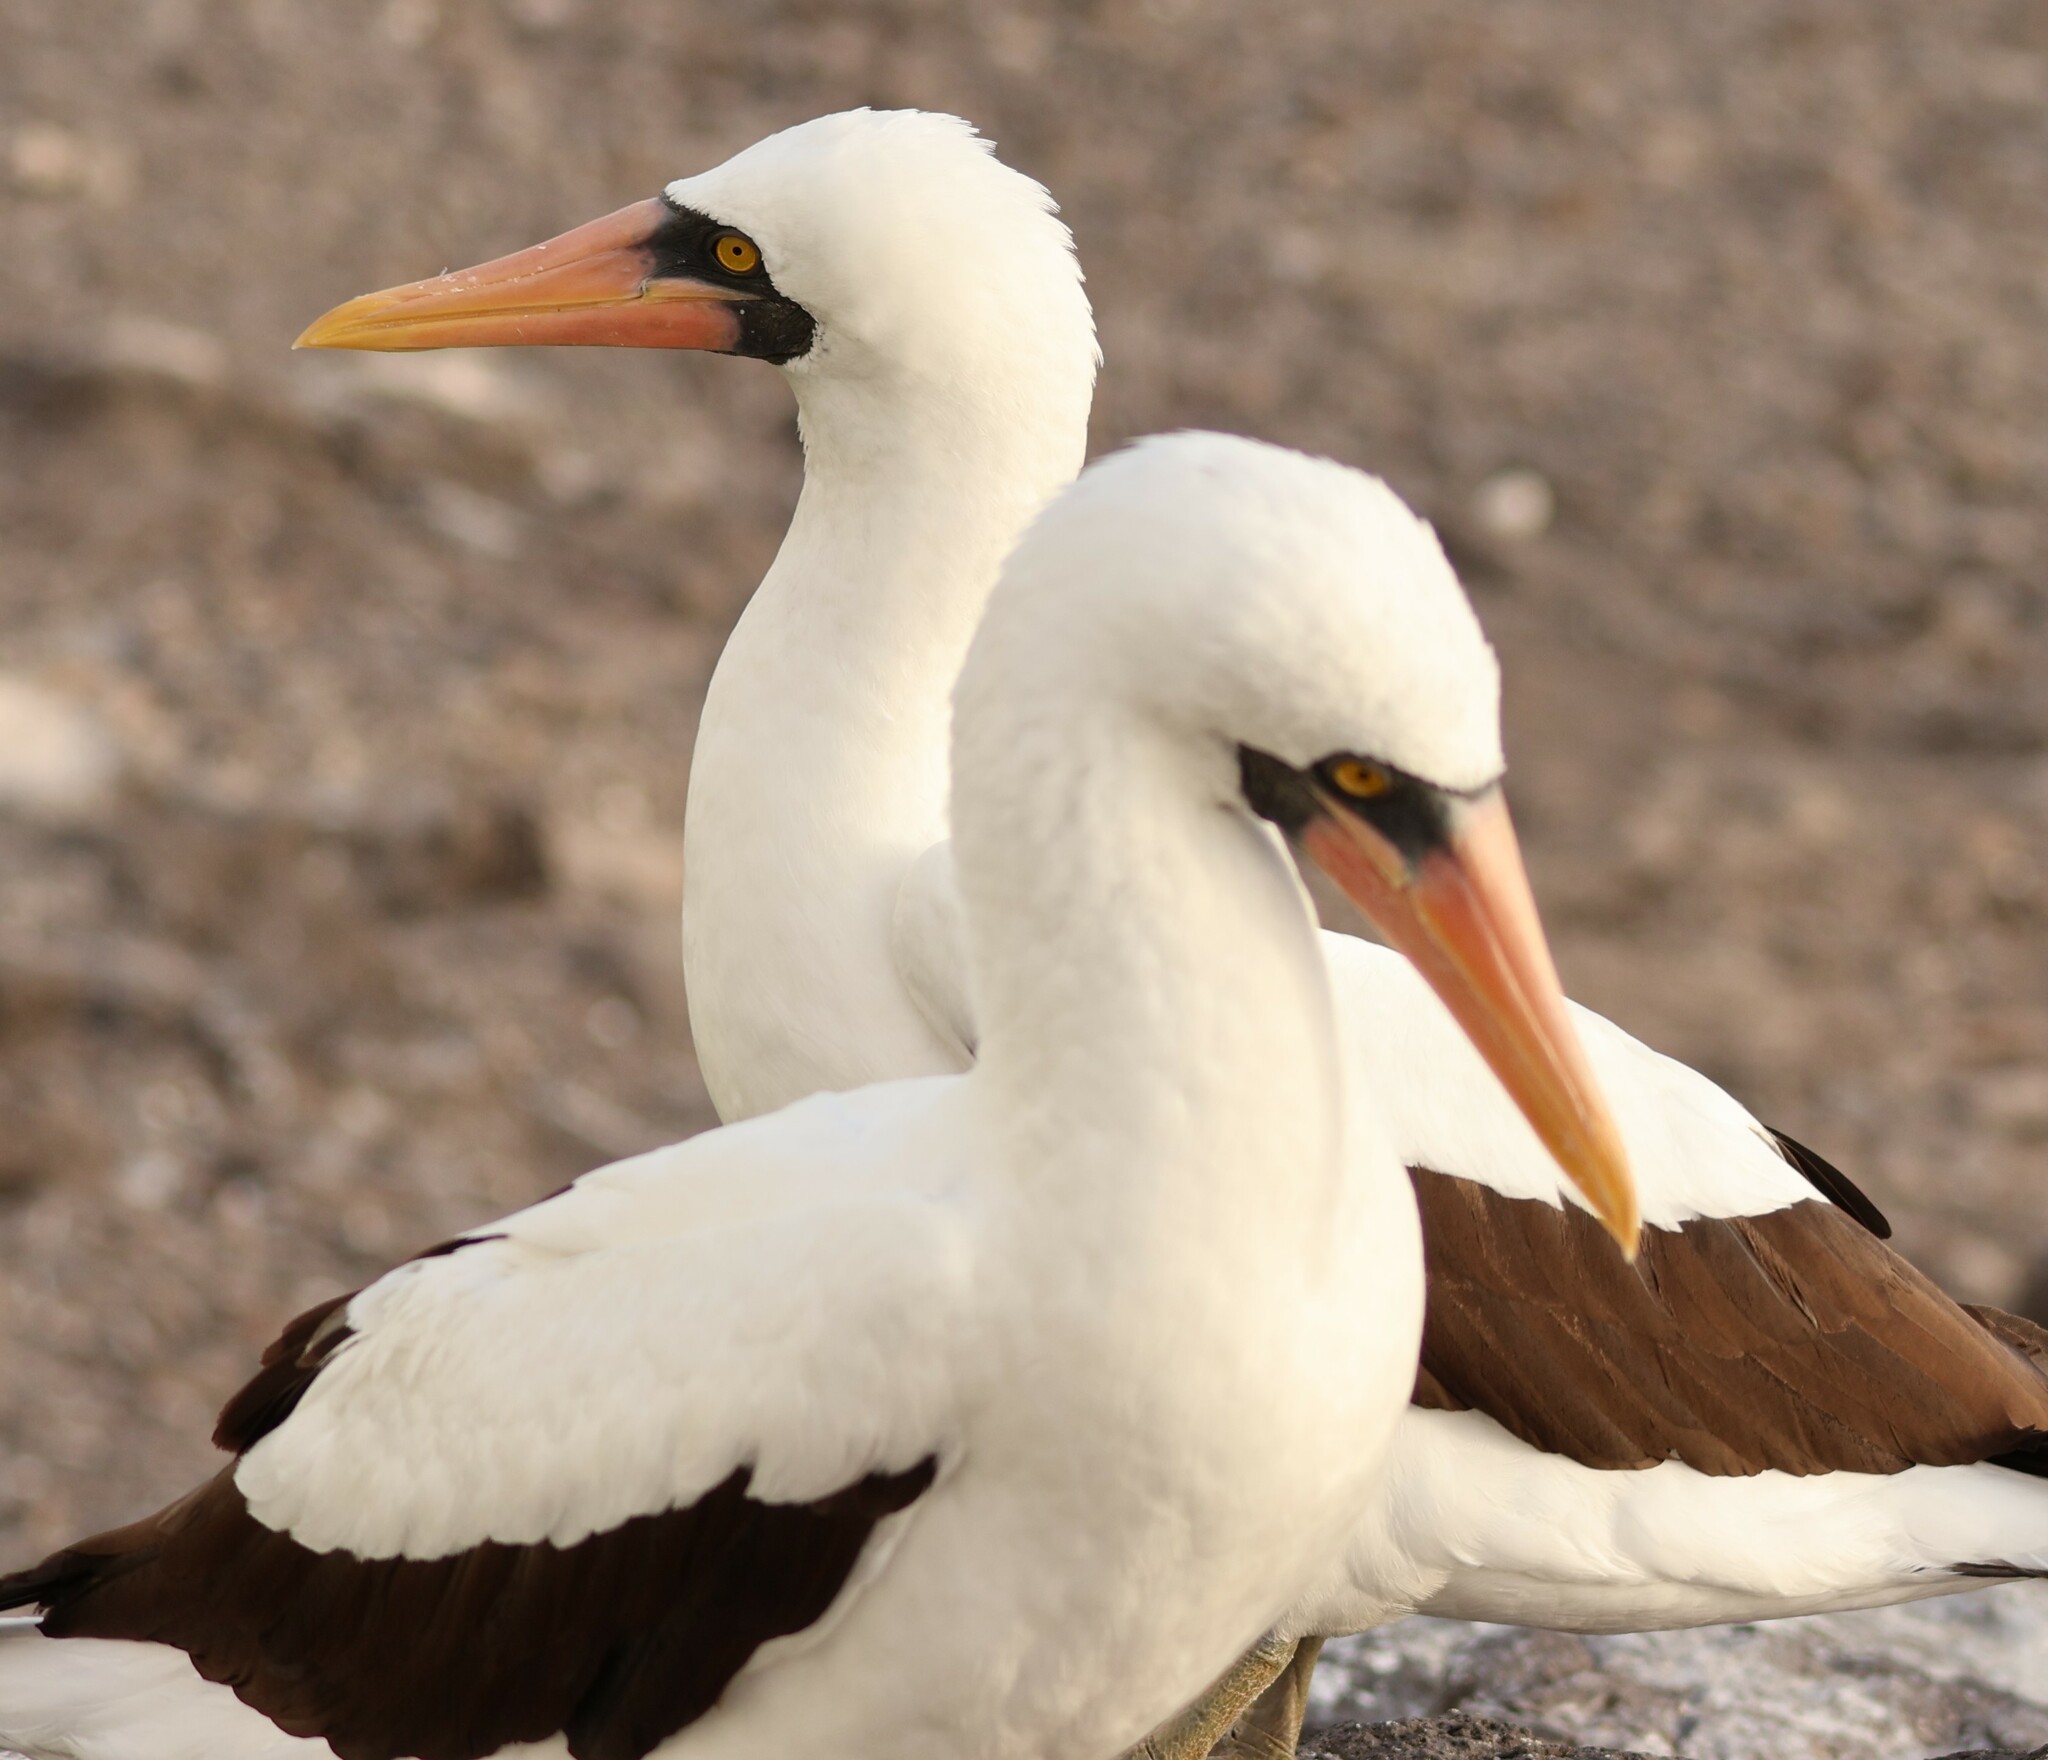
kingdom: Animalia
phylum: Chordata
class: Aves
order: Suliformes
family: Sulidae
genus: Sula
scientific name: Sula granti
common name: Nazca booby
